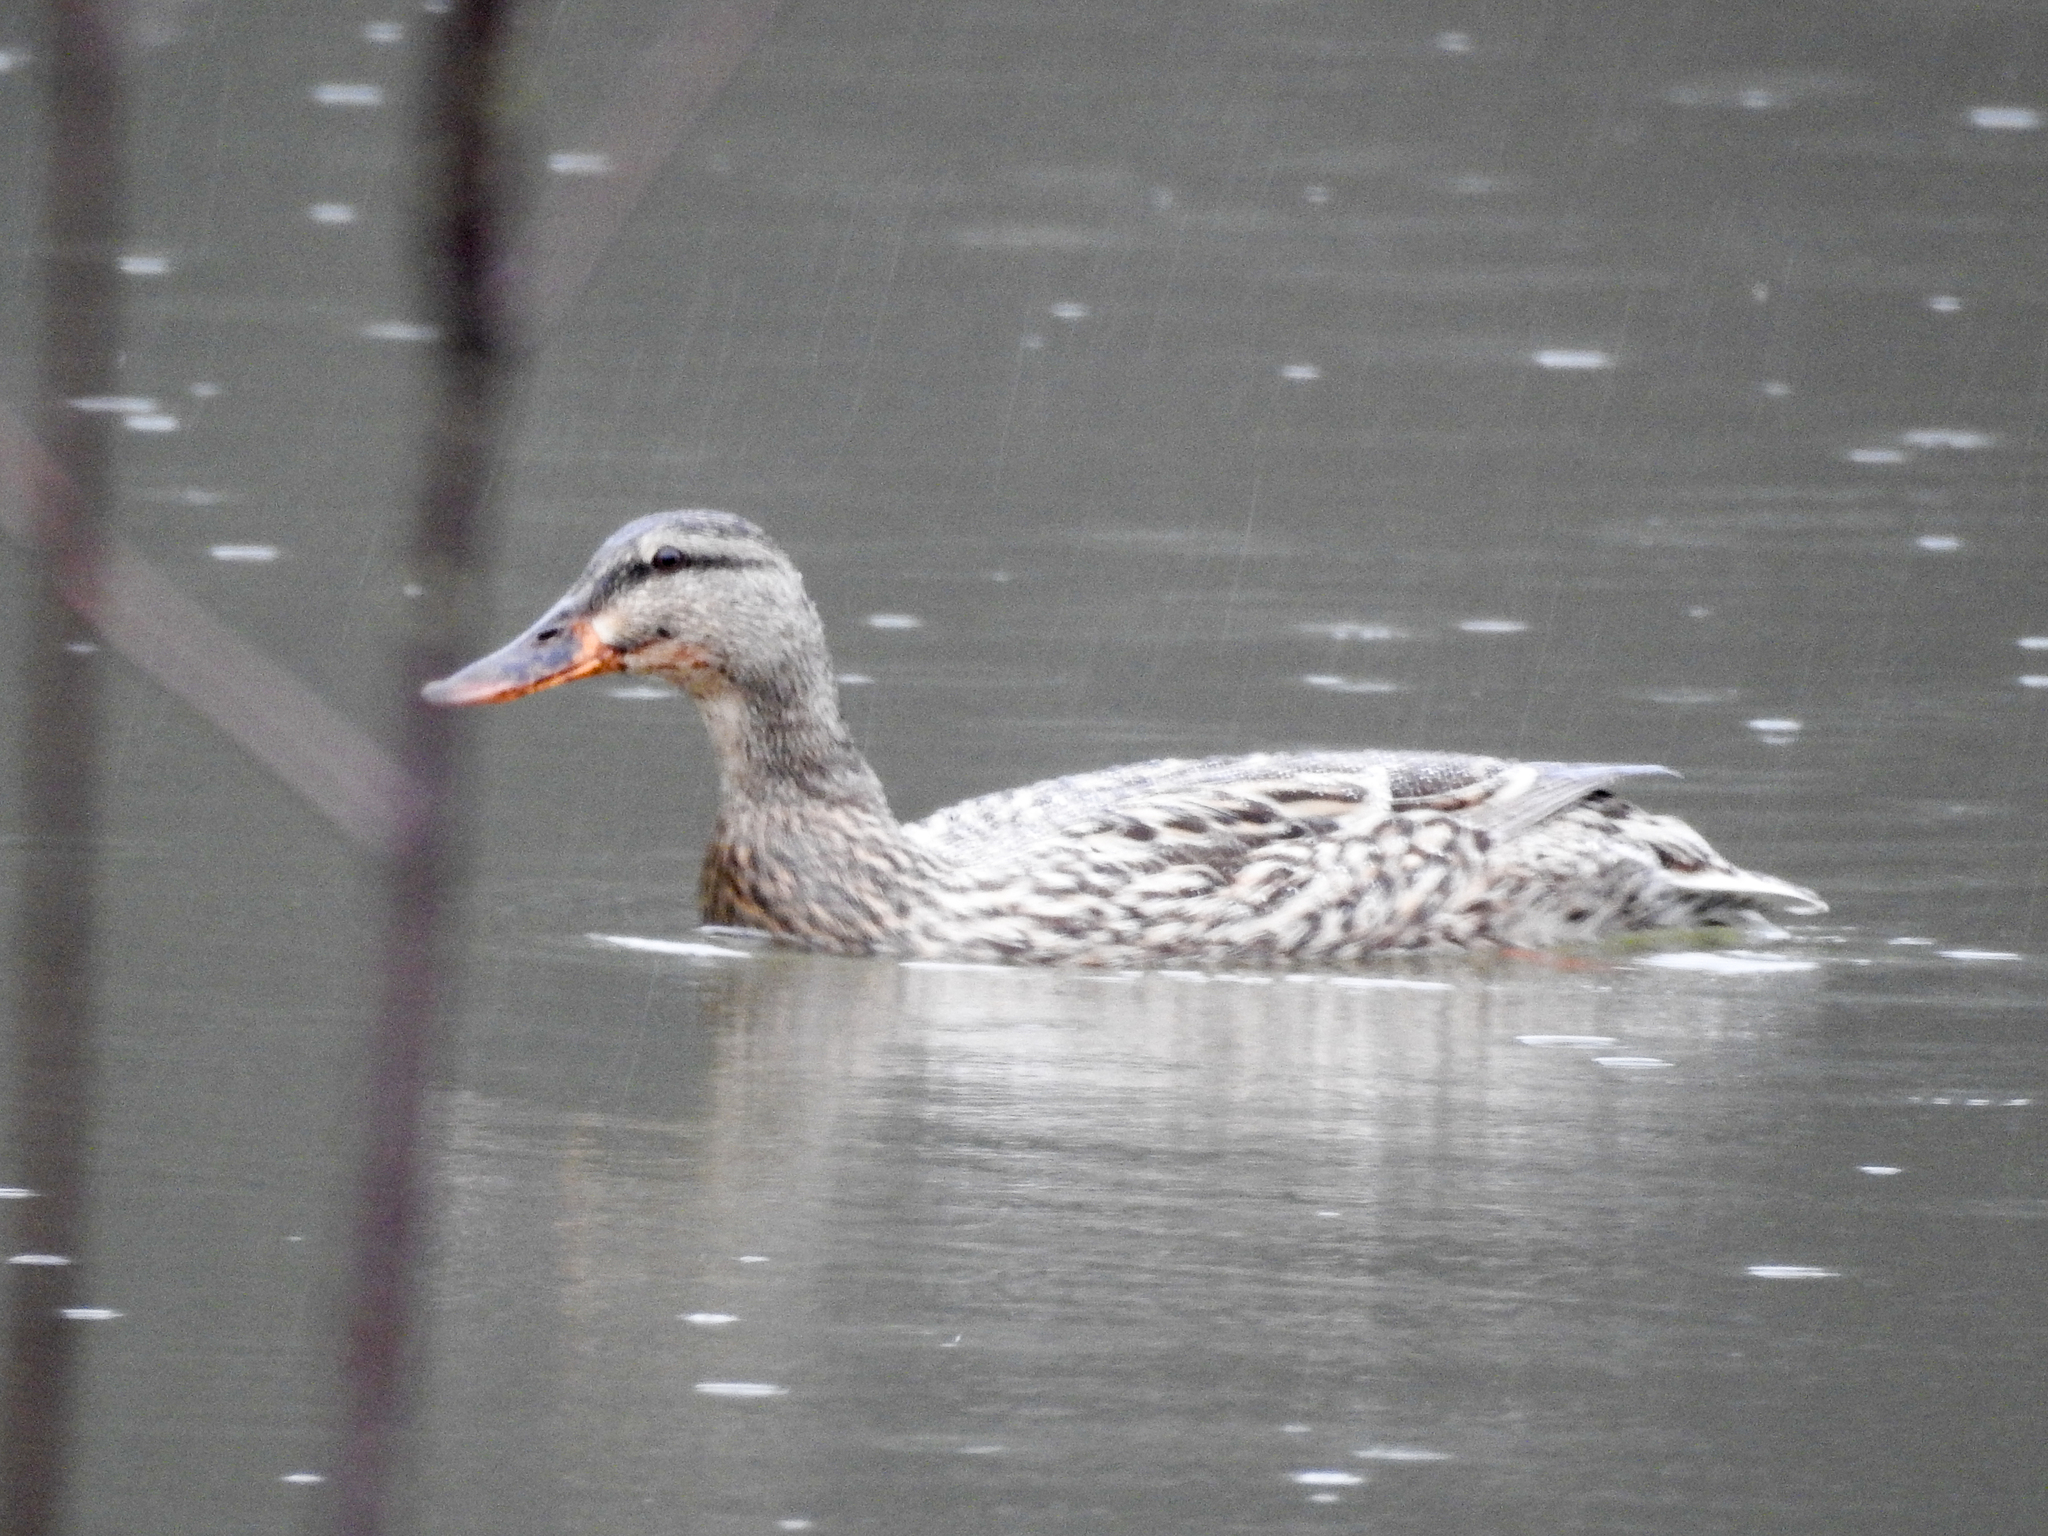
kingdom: Animalia
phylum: Chordata
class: Aves
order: Anseriformes
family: Anatidae
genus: Anas
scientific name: Anas platyrhynchos
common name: Mallard
